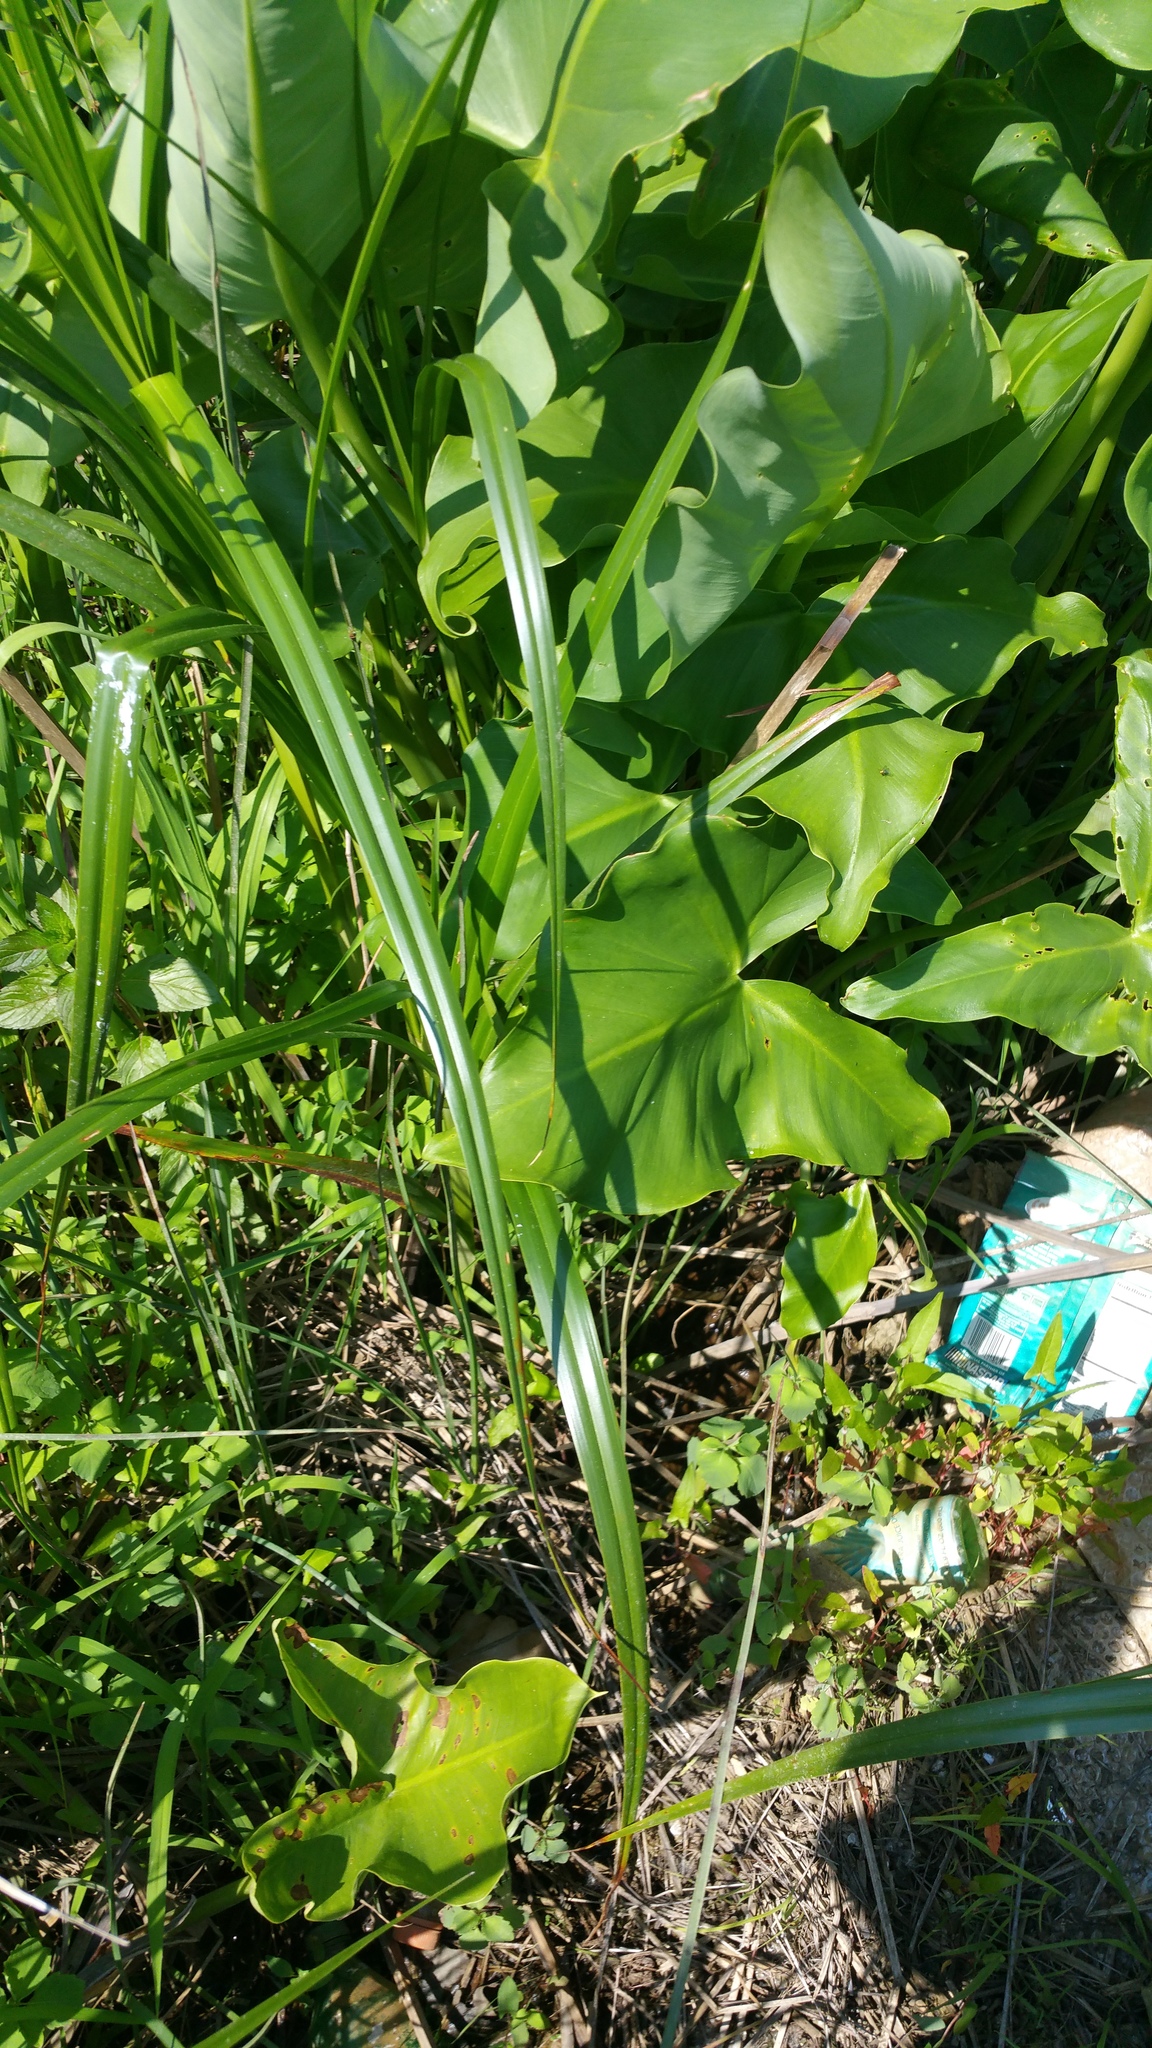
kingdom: Plantae
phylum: Tracheophyta
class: Liliopsida
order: Alismatales
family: Araceae
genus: Peltandra
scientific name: Peltandra virginica
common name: Arrow arum
